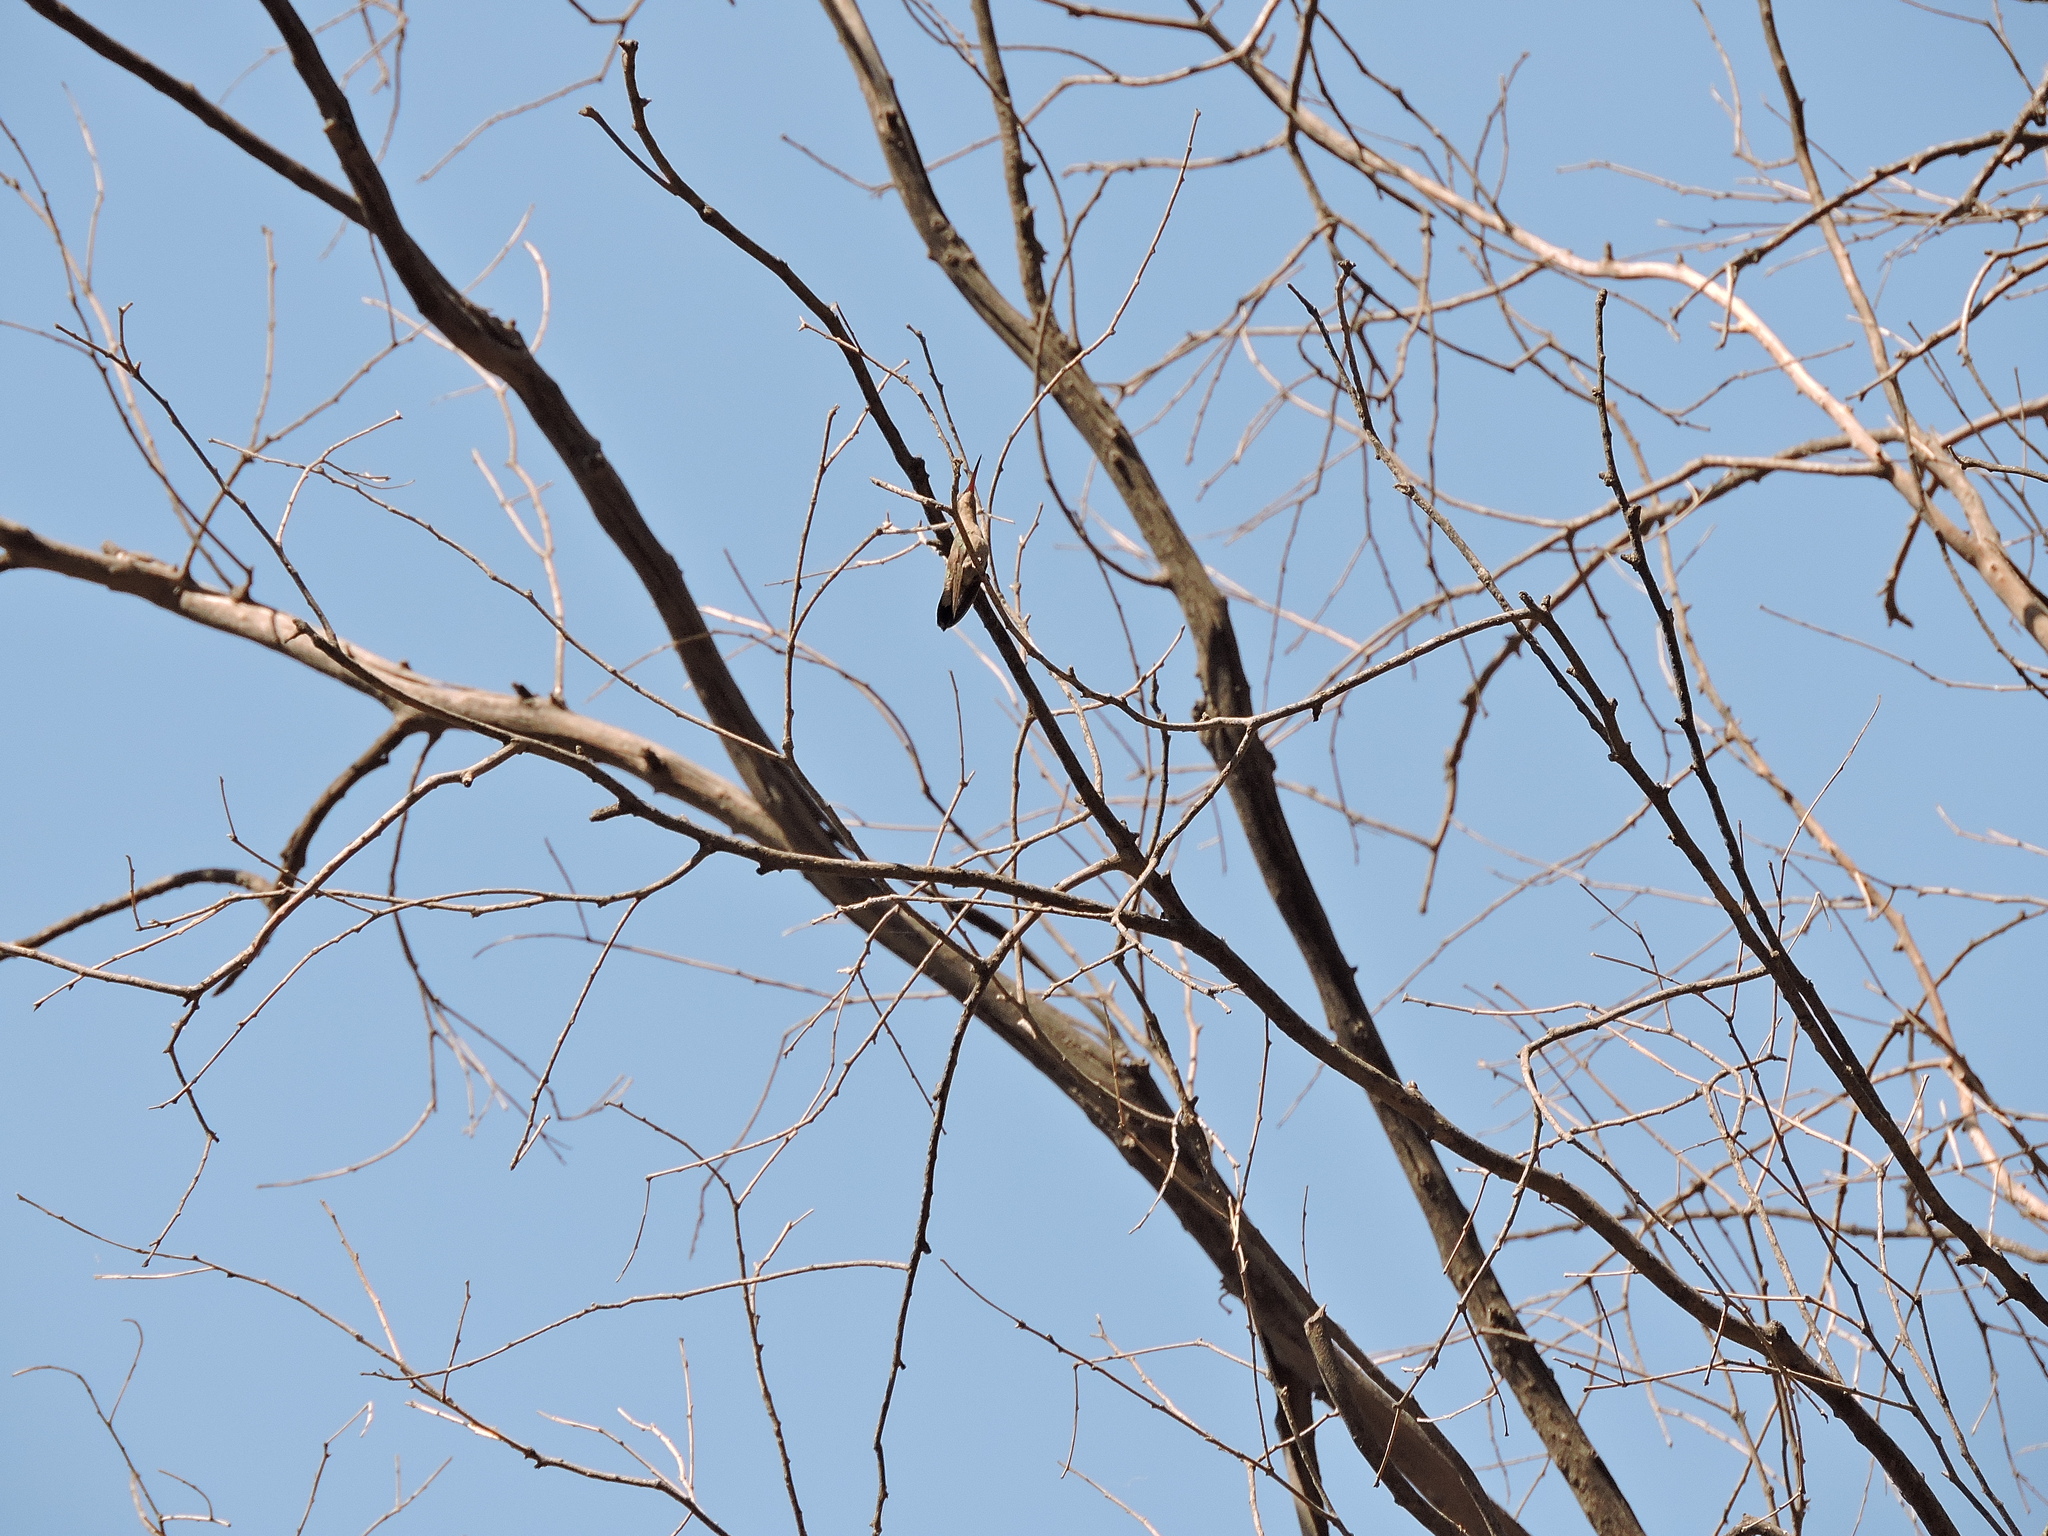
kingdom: Animalia
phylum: Chordata
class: Aves
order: Apodiformes
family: Trochilidae
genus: Cynanthus
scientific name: Cynanthus latirostris
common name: Broad-billed hummingbird
